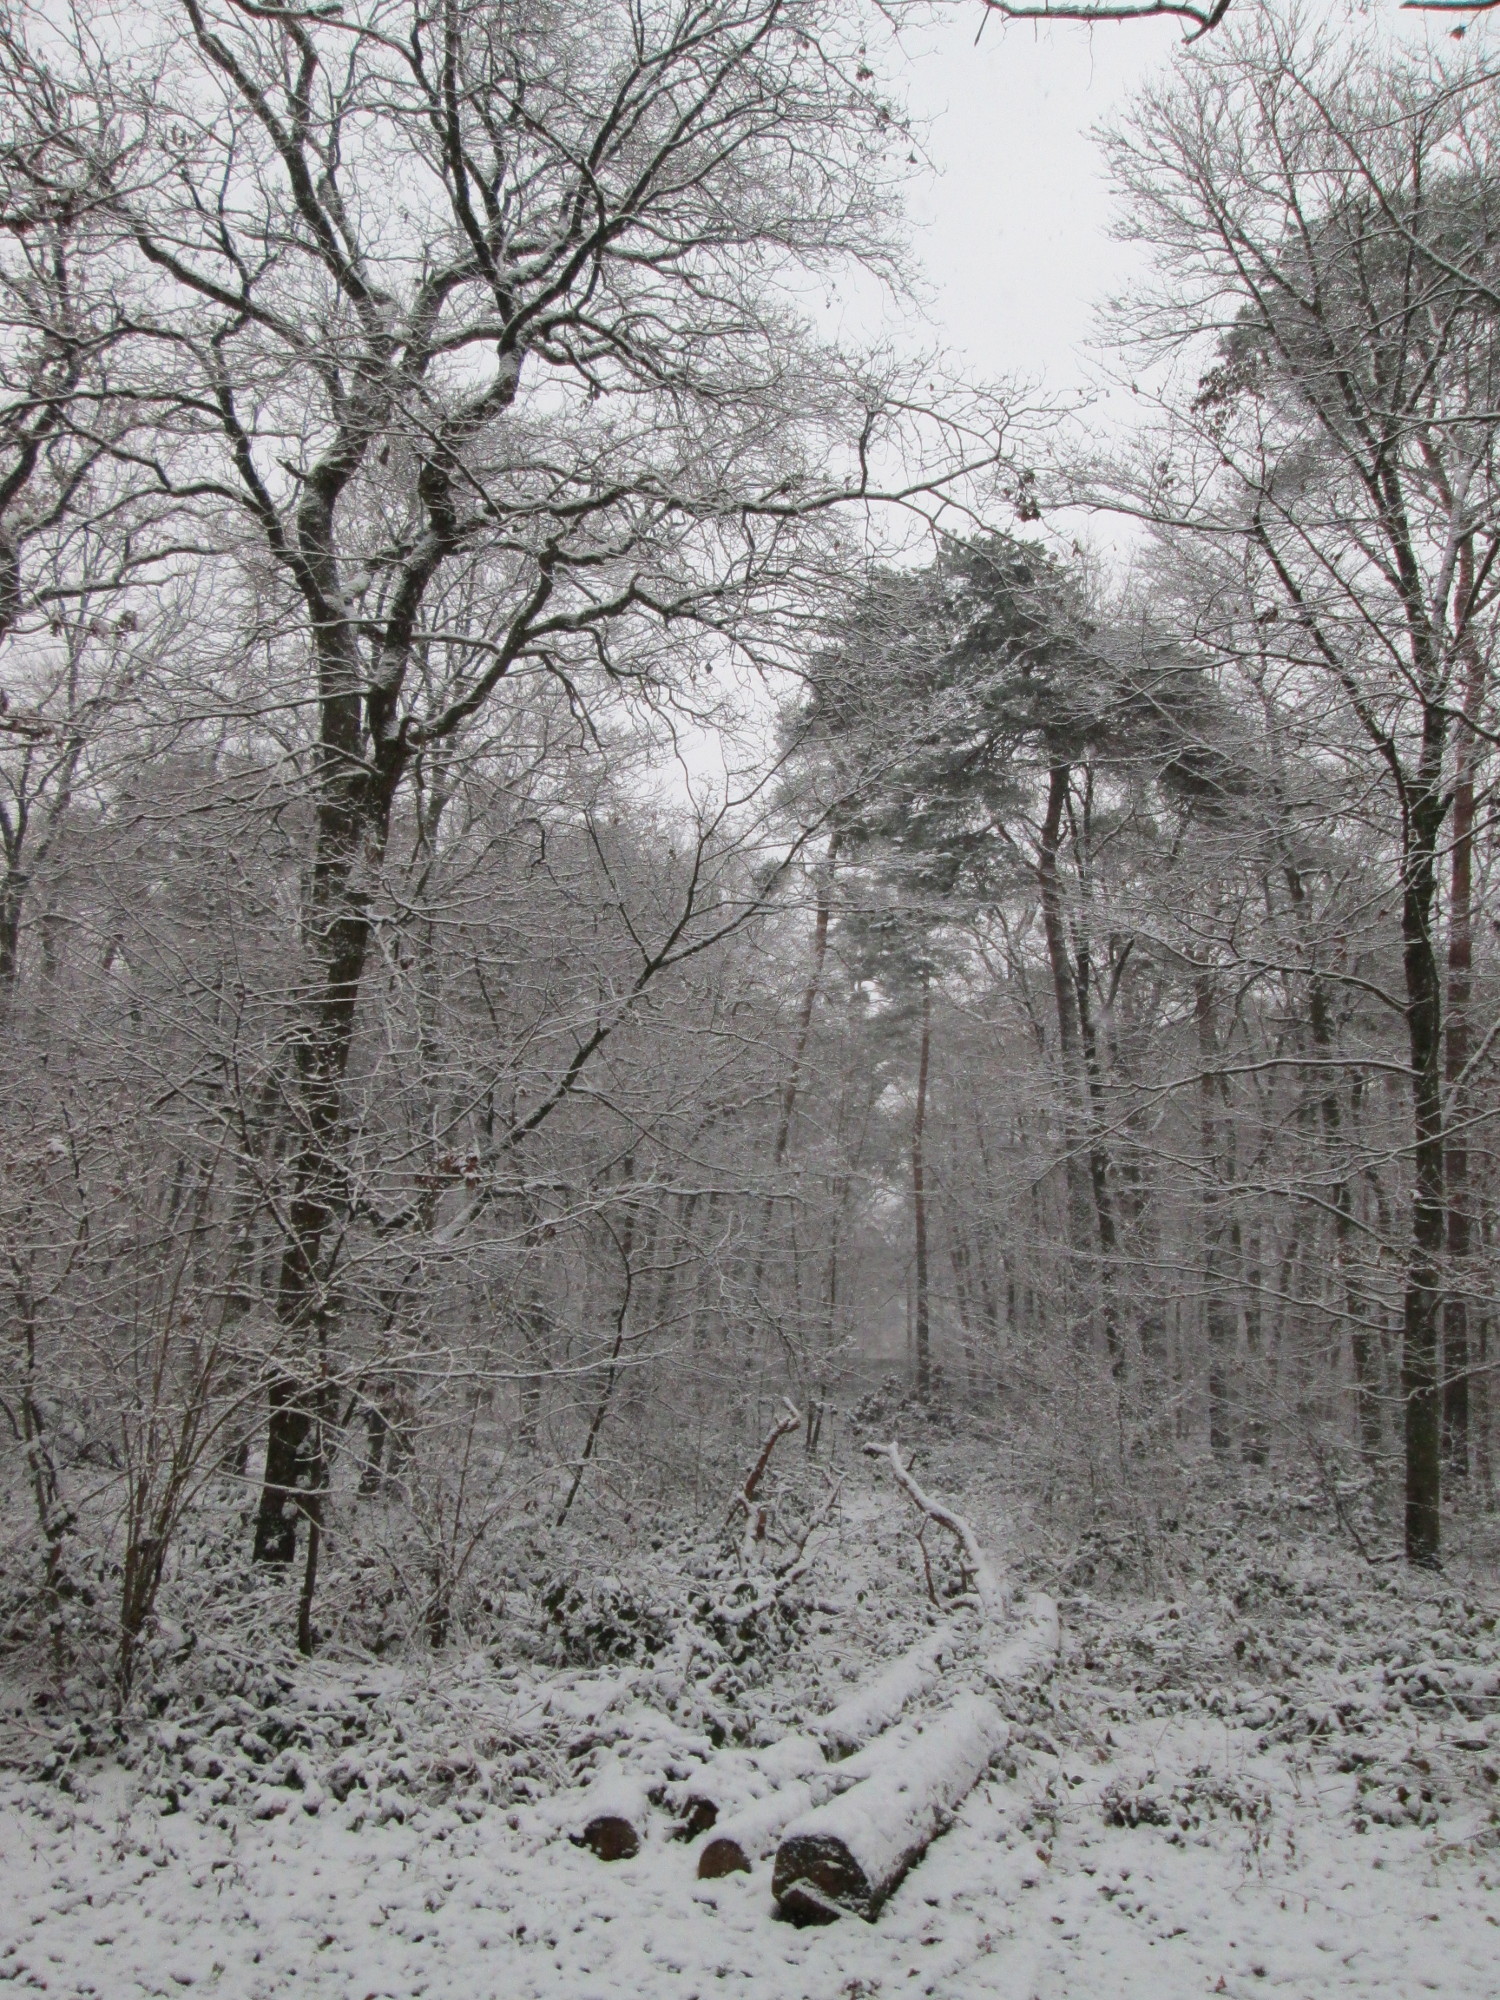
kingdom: Plantae
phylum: Tracheophyta
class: Pinopsida
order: Pinales
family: Pinaceae
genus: Pinus
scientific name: Pinus sylvestris
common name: Scots pine
